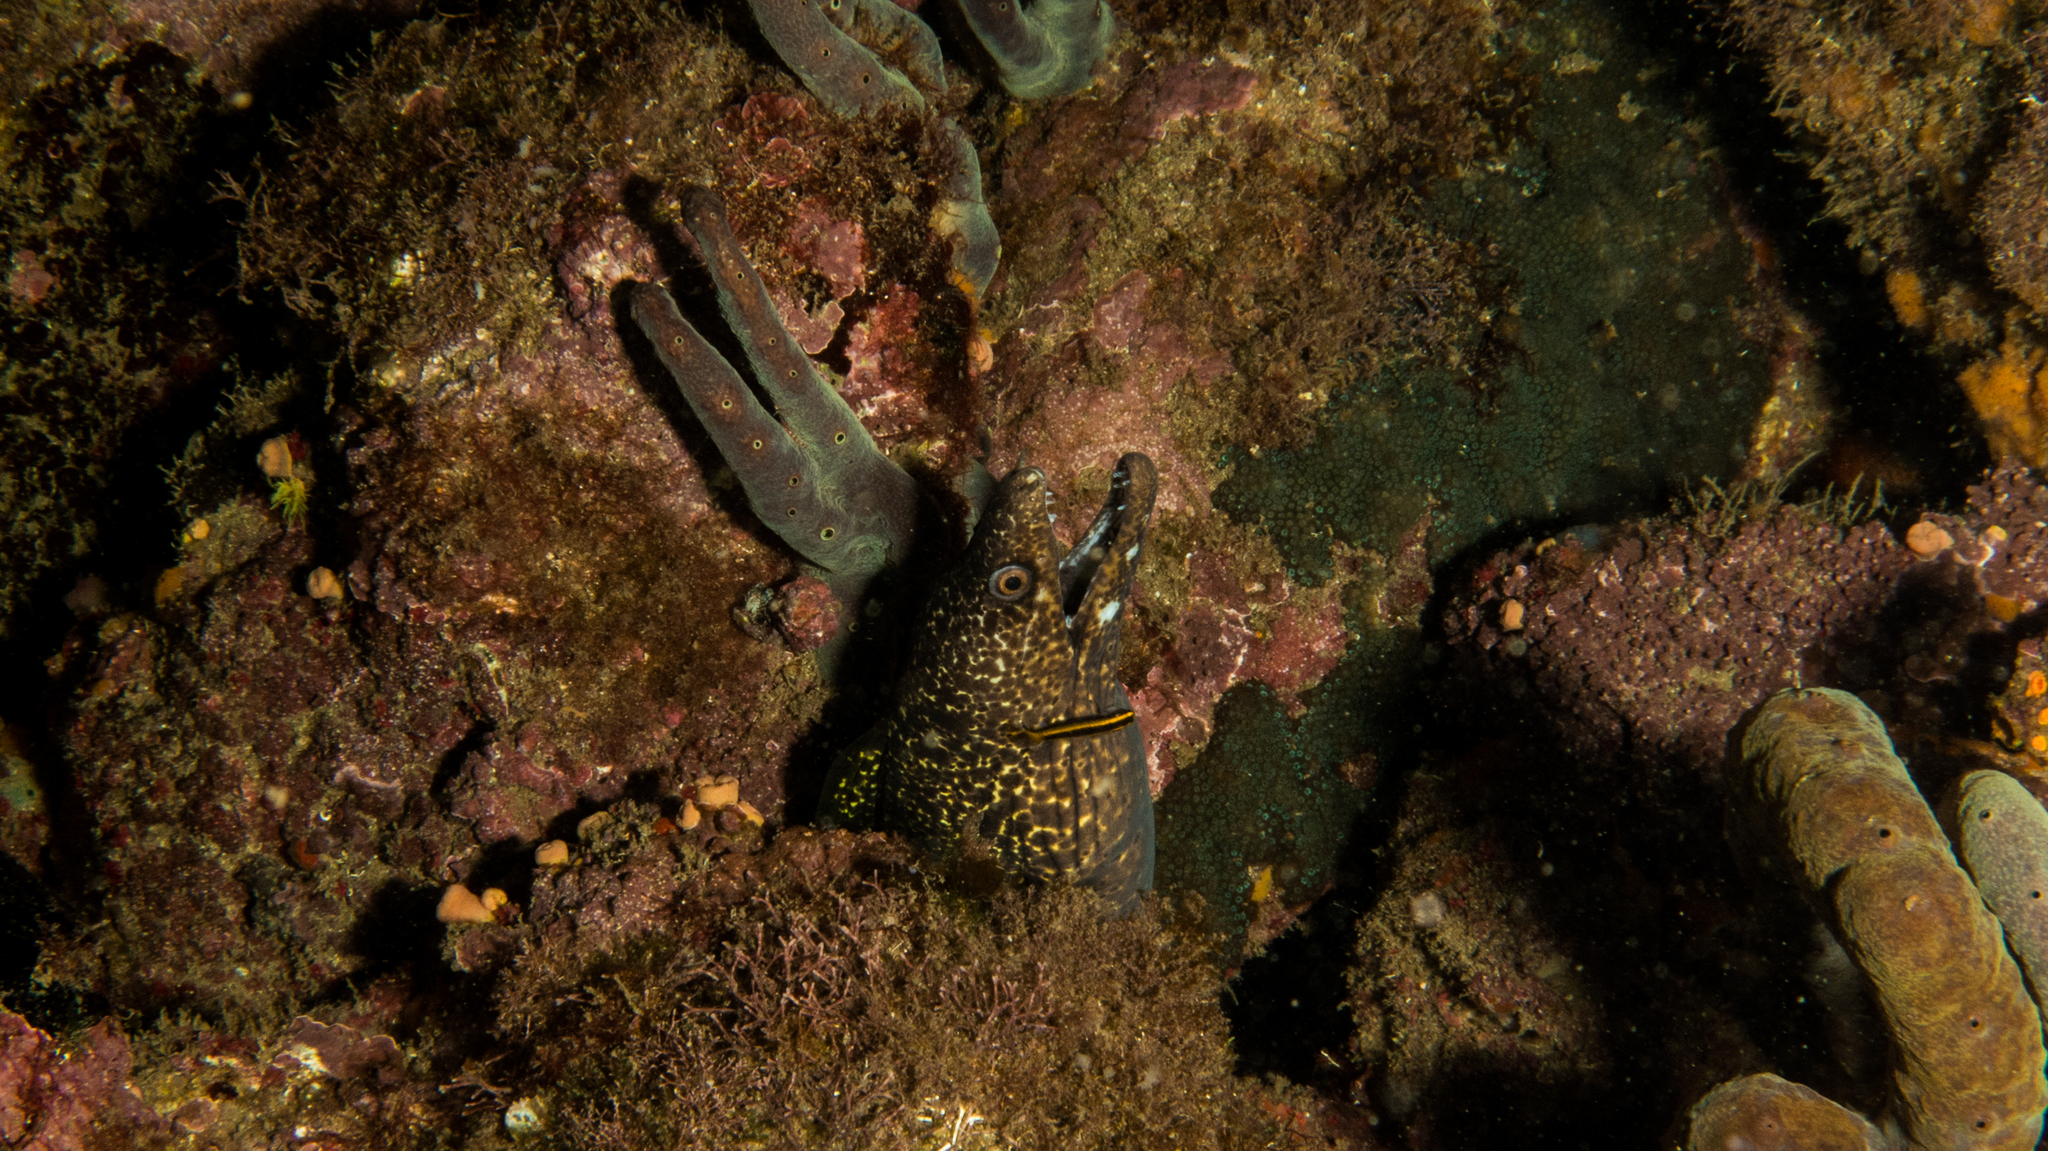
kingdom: Animalia
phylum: Chordata
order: Anguilliformes
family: Muraenidae
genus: Gymnothorax
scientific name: Gymnothorax moringa
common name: Spotted moray
